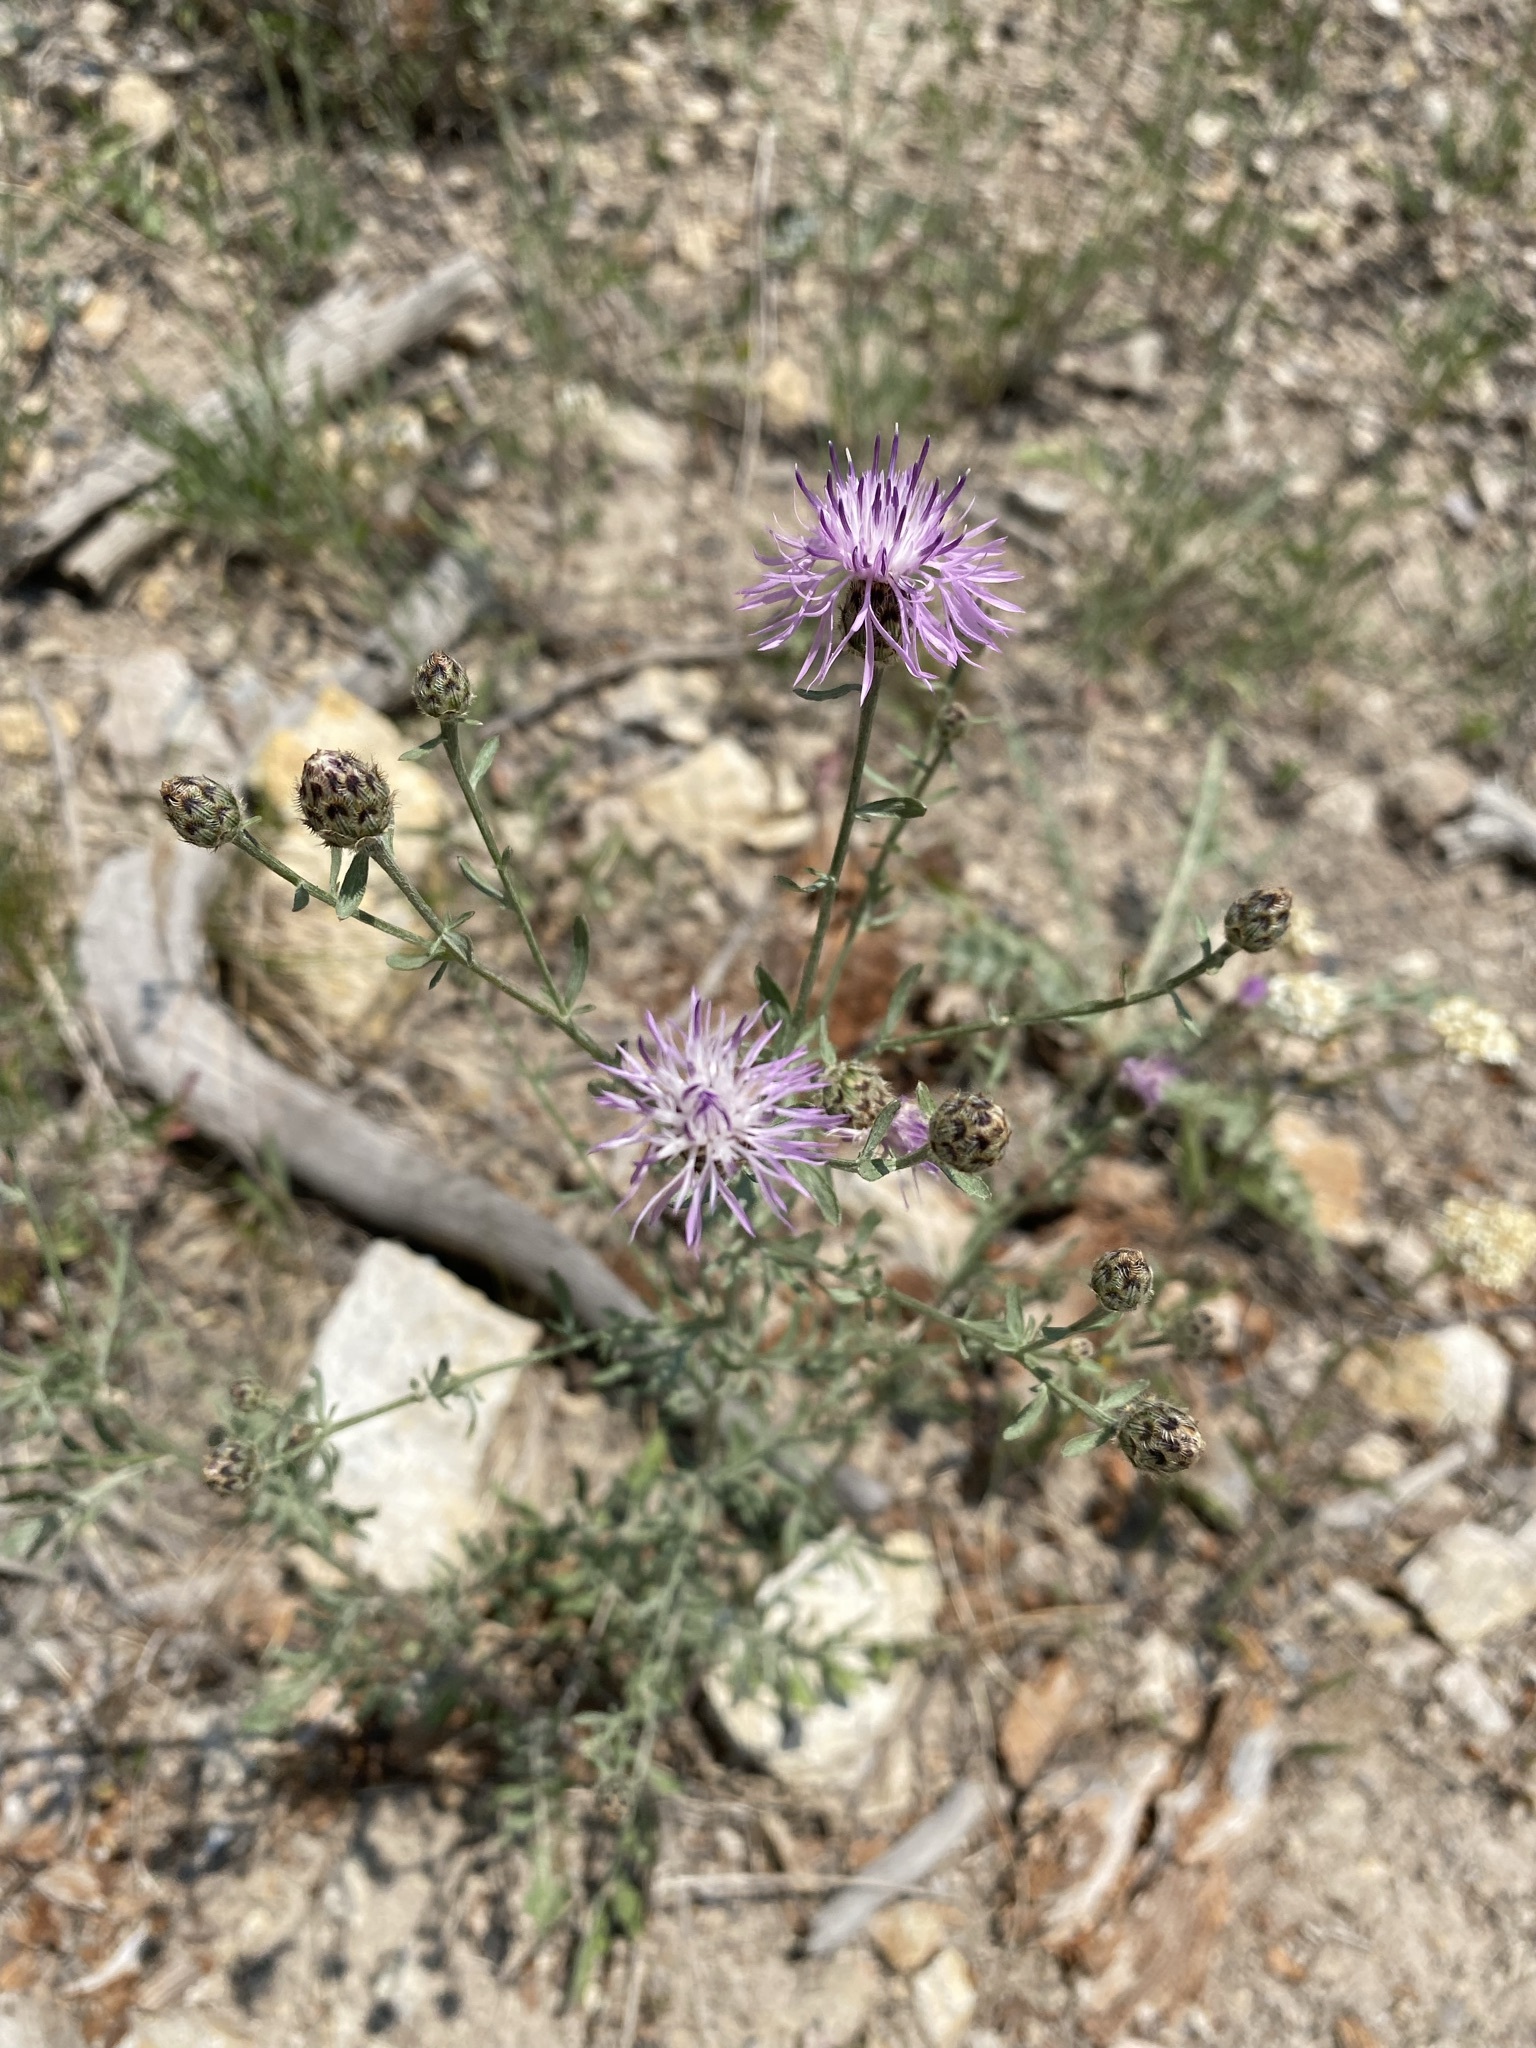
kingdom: Plantae
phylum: Tracheophyta
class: Magnoliopsida
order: Asterales
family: Asteraceae
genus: Centaurea
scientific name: Centaurea stoebe
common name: Spotted knapweed
